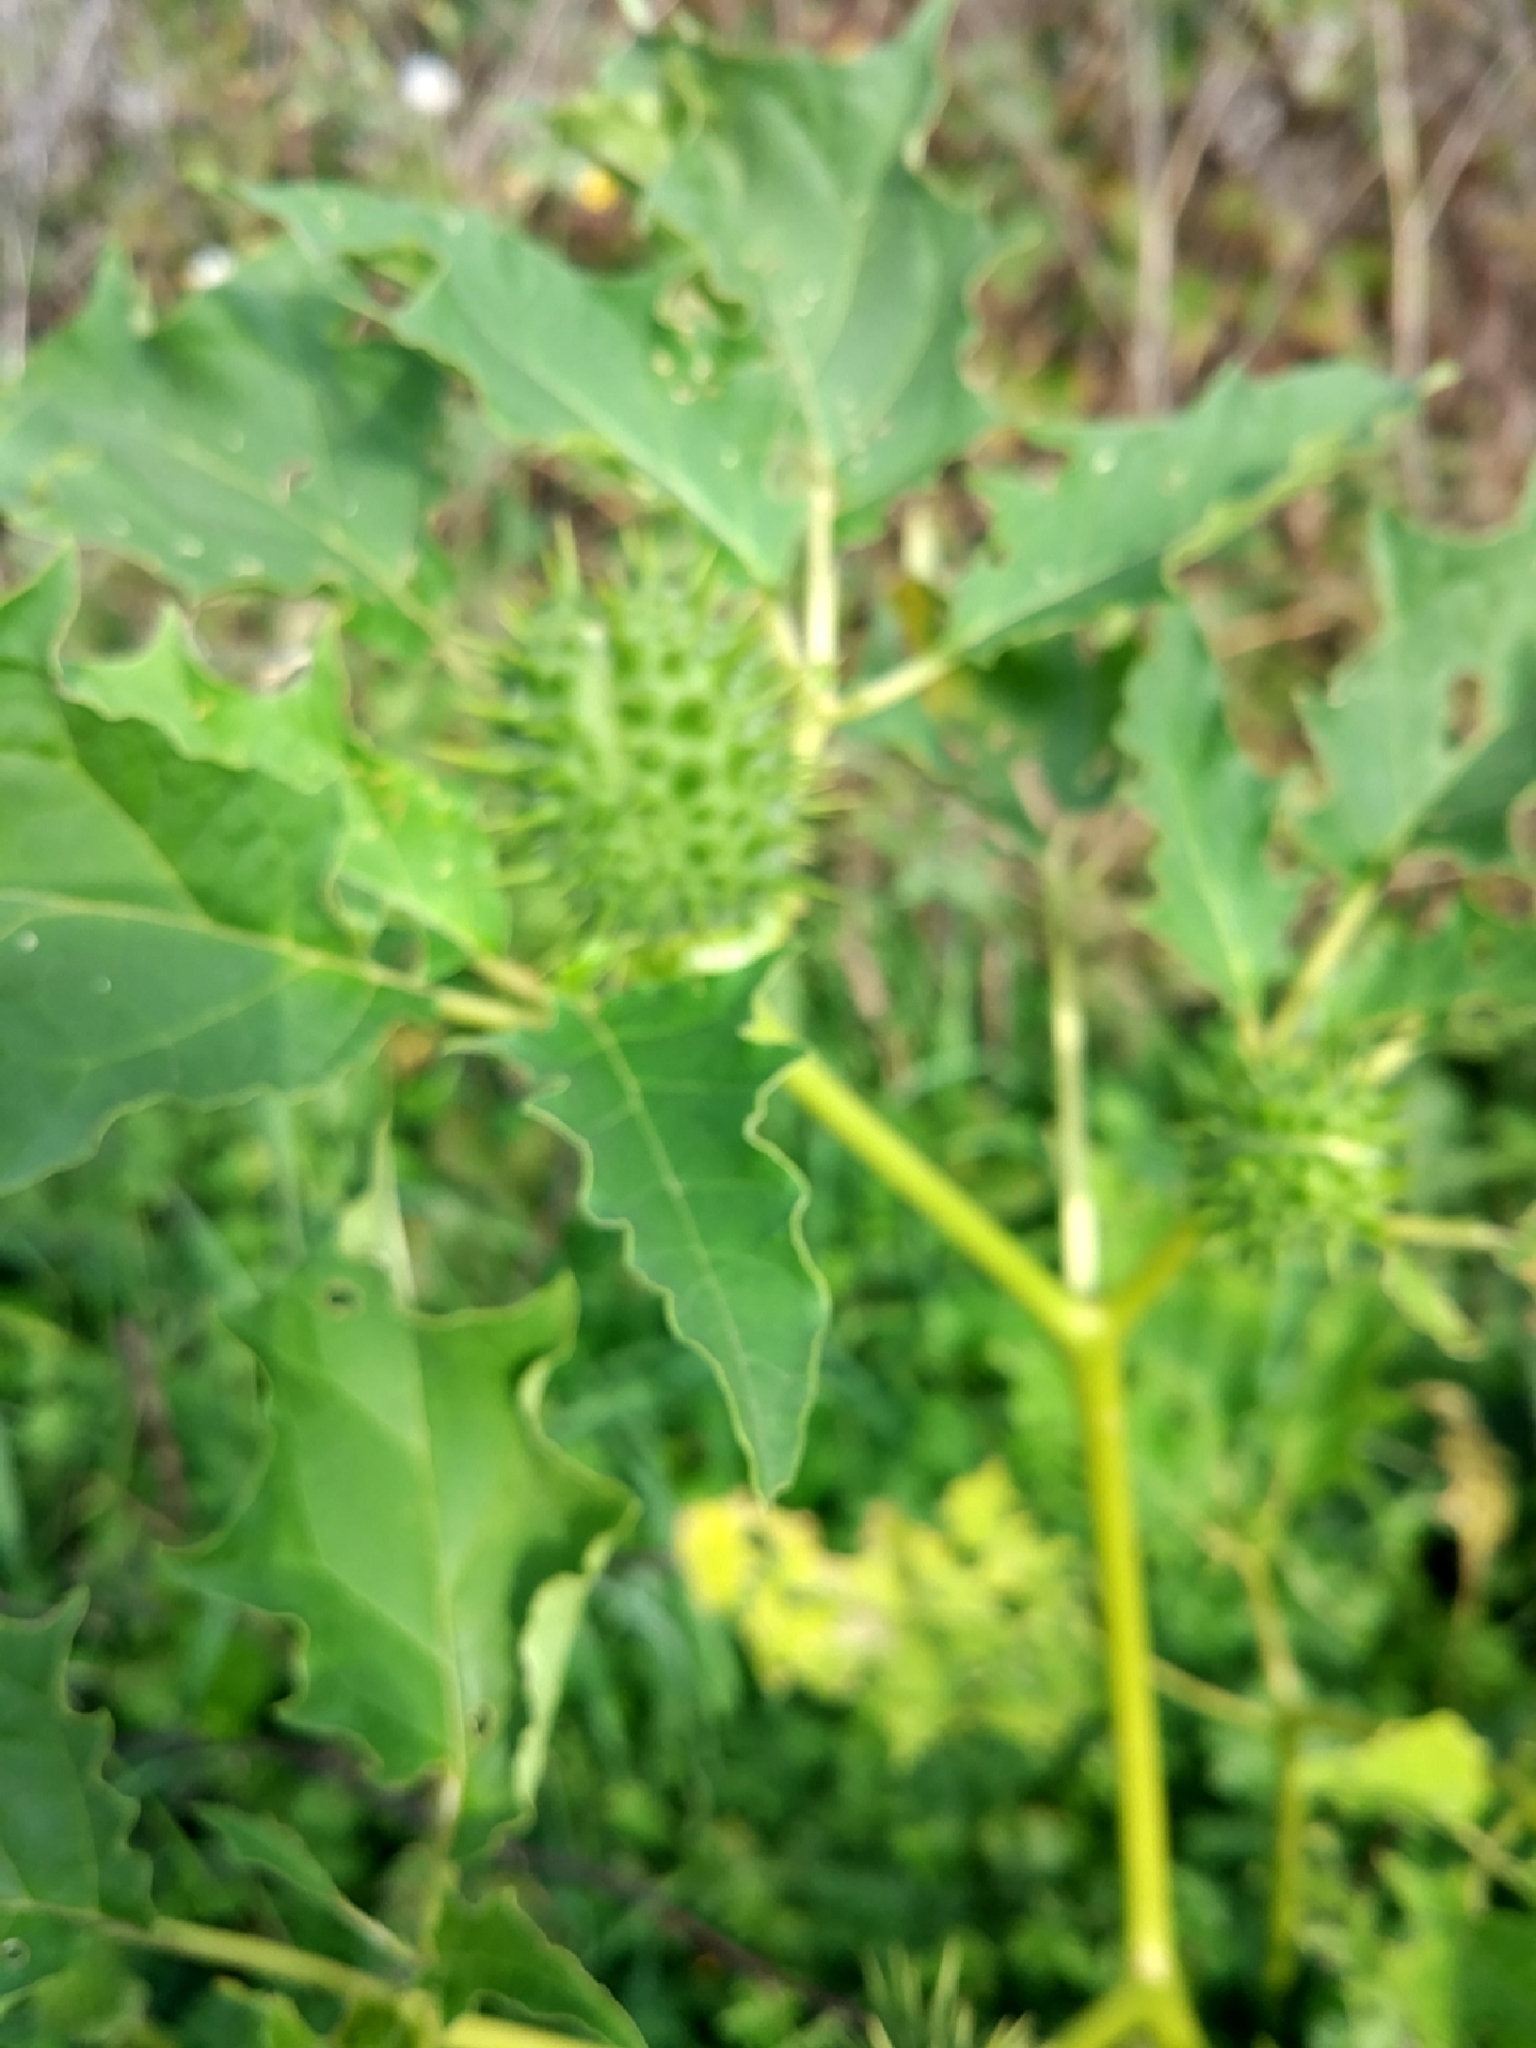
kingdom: Plantae
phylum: Tracheophyta
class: Magnoliopsida
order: Solanales
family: Solanaceae
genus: Datura
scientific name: Datura stramonium
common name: Thorn-apple
